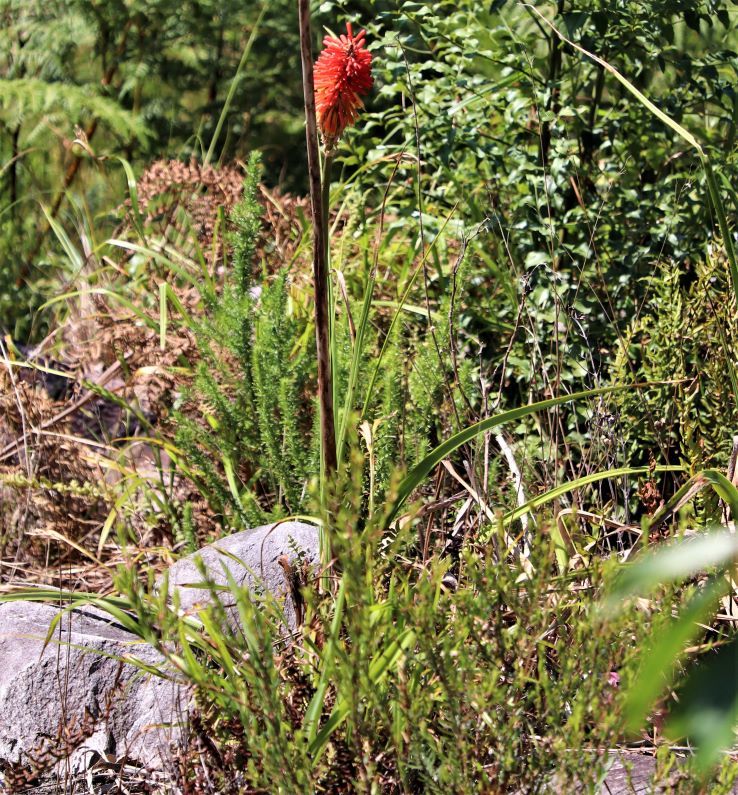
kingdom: Plantae
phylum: Tracheophyta
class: Liliopsida
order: Asparagales
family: Asphodelaceae
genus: Kniphofia
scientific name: Kniphofia uvaria
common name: Red-hot-poker
